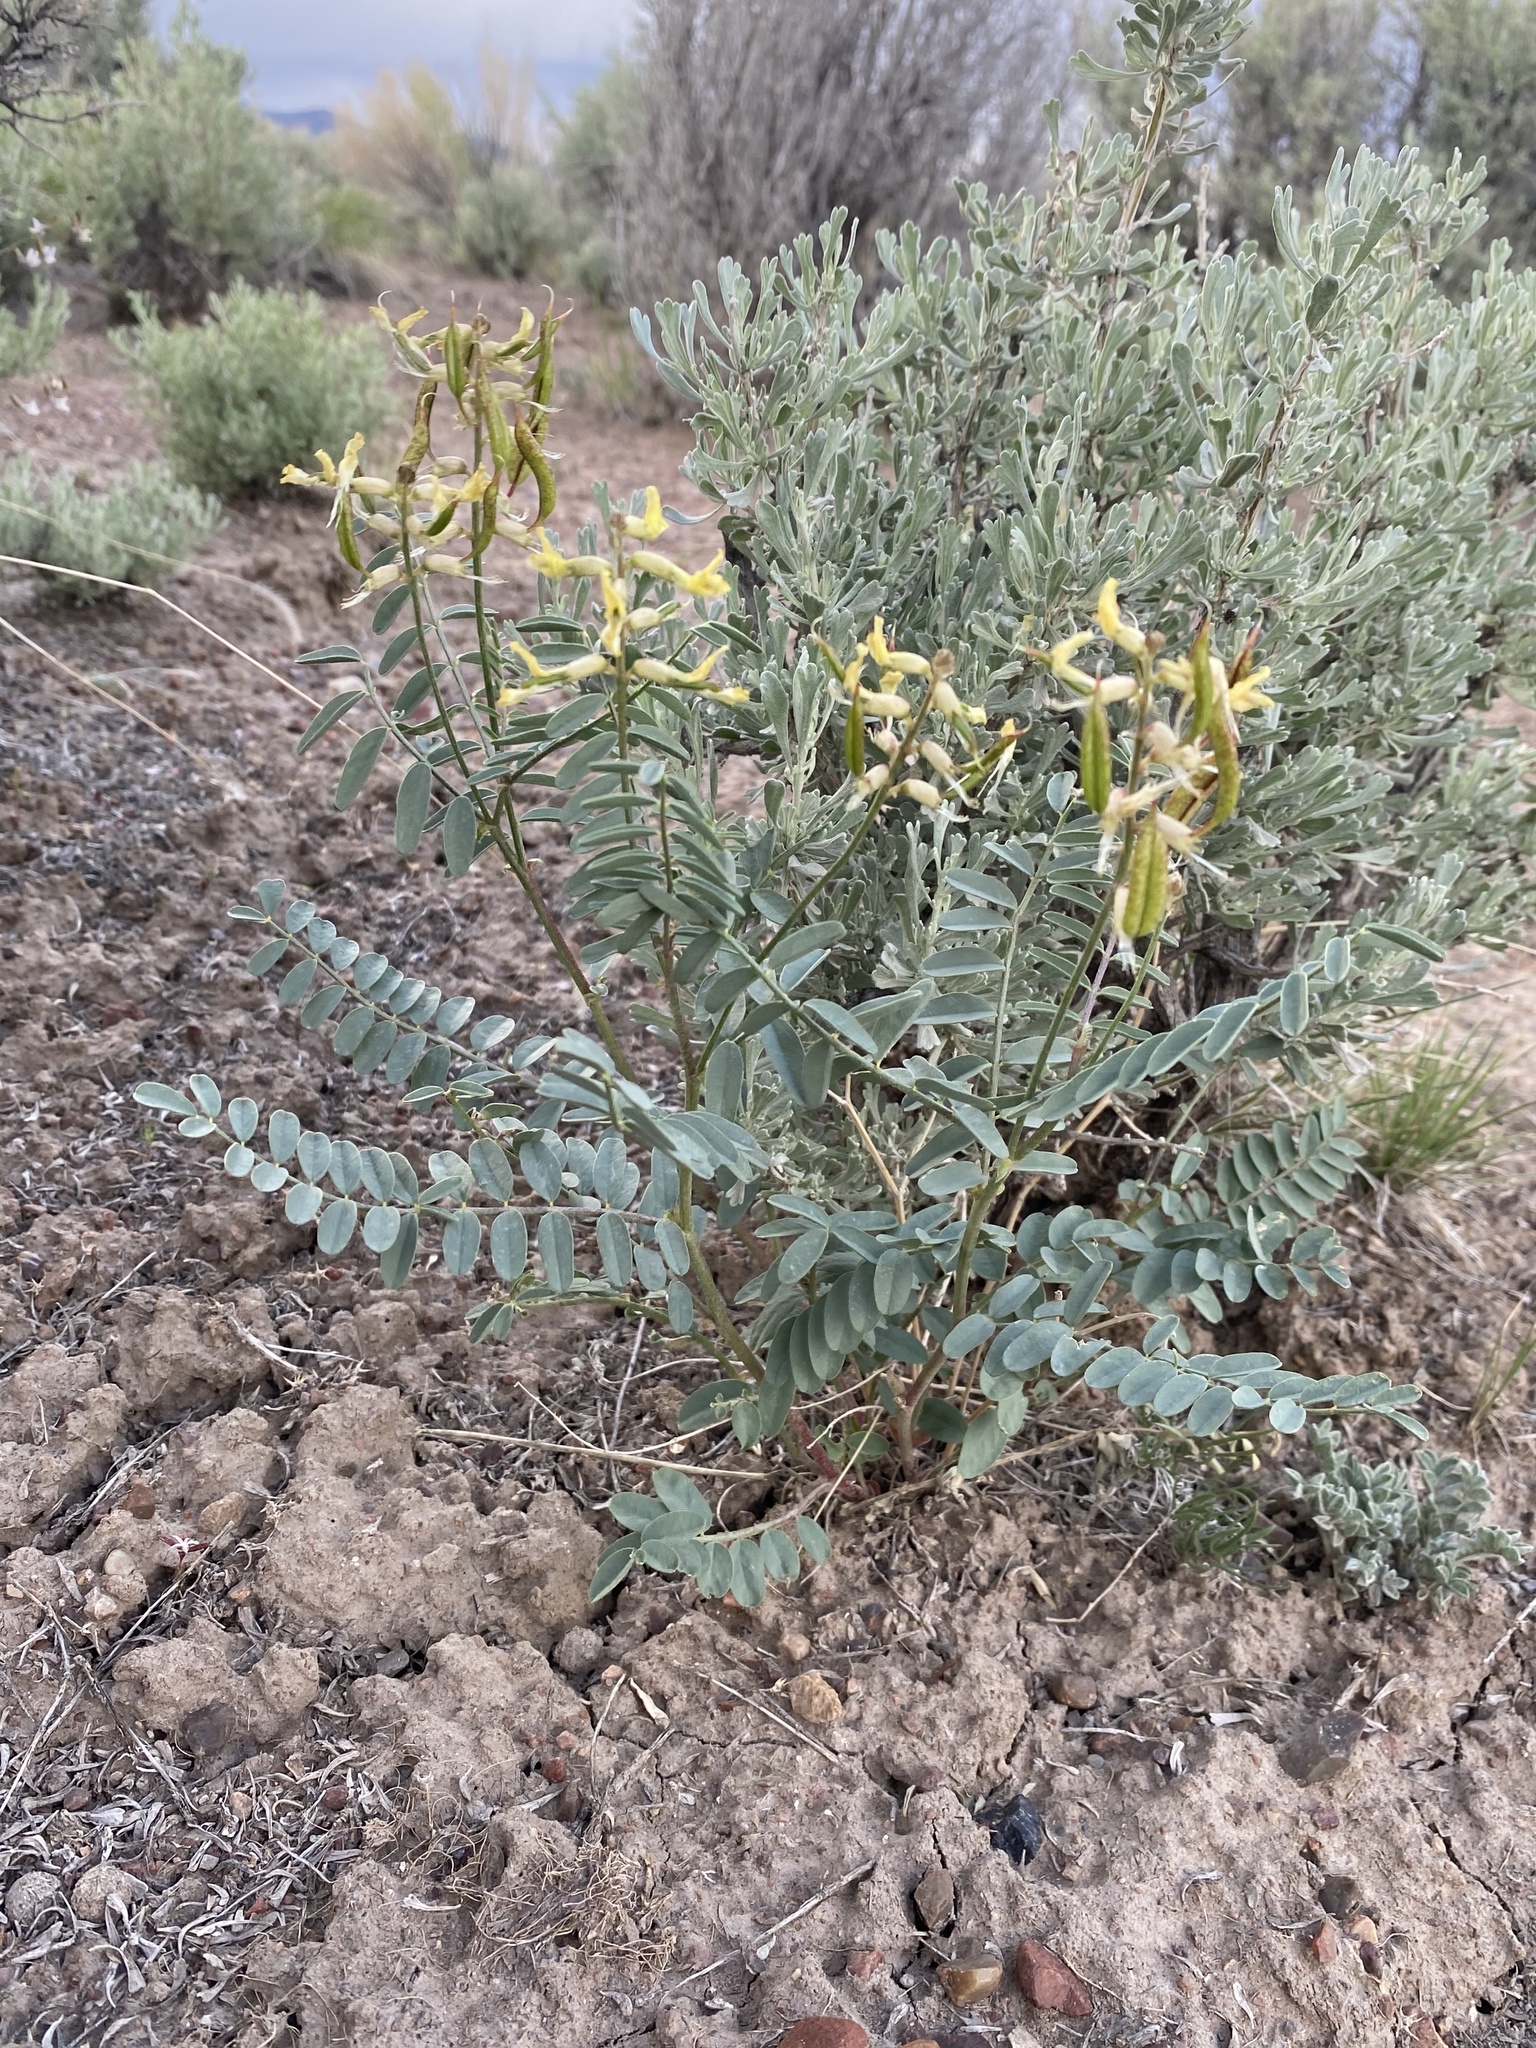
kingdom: Plantae
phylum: Tracheophyta
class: Magnoliopsida
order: Fabales
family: Fabaceae
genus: Astragalus
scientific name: Astragalus eremiticus
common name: Hermit milk-vetch
